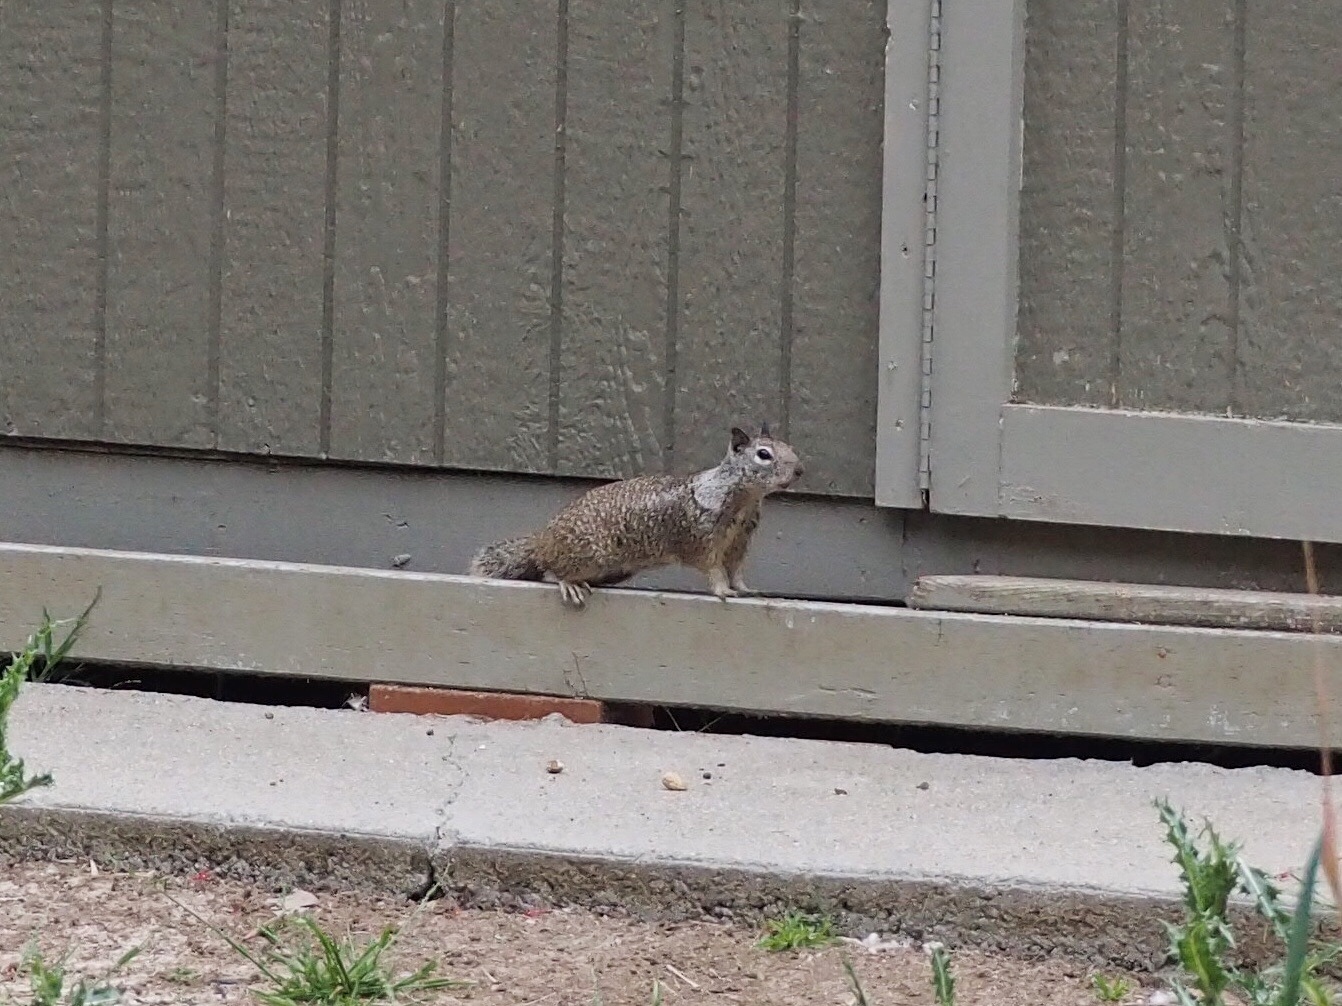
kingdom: Animalia
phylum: Chordata
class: Mammalia
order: Rodentia
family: Sciuridae
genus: Otospermophilus
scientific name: Otospermophilus beecheyi
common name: California ground squirrel
